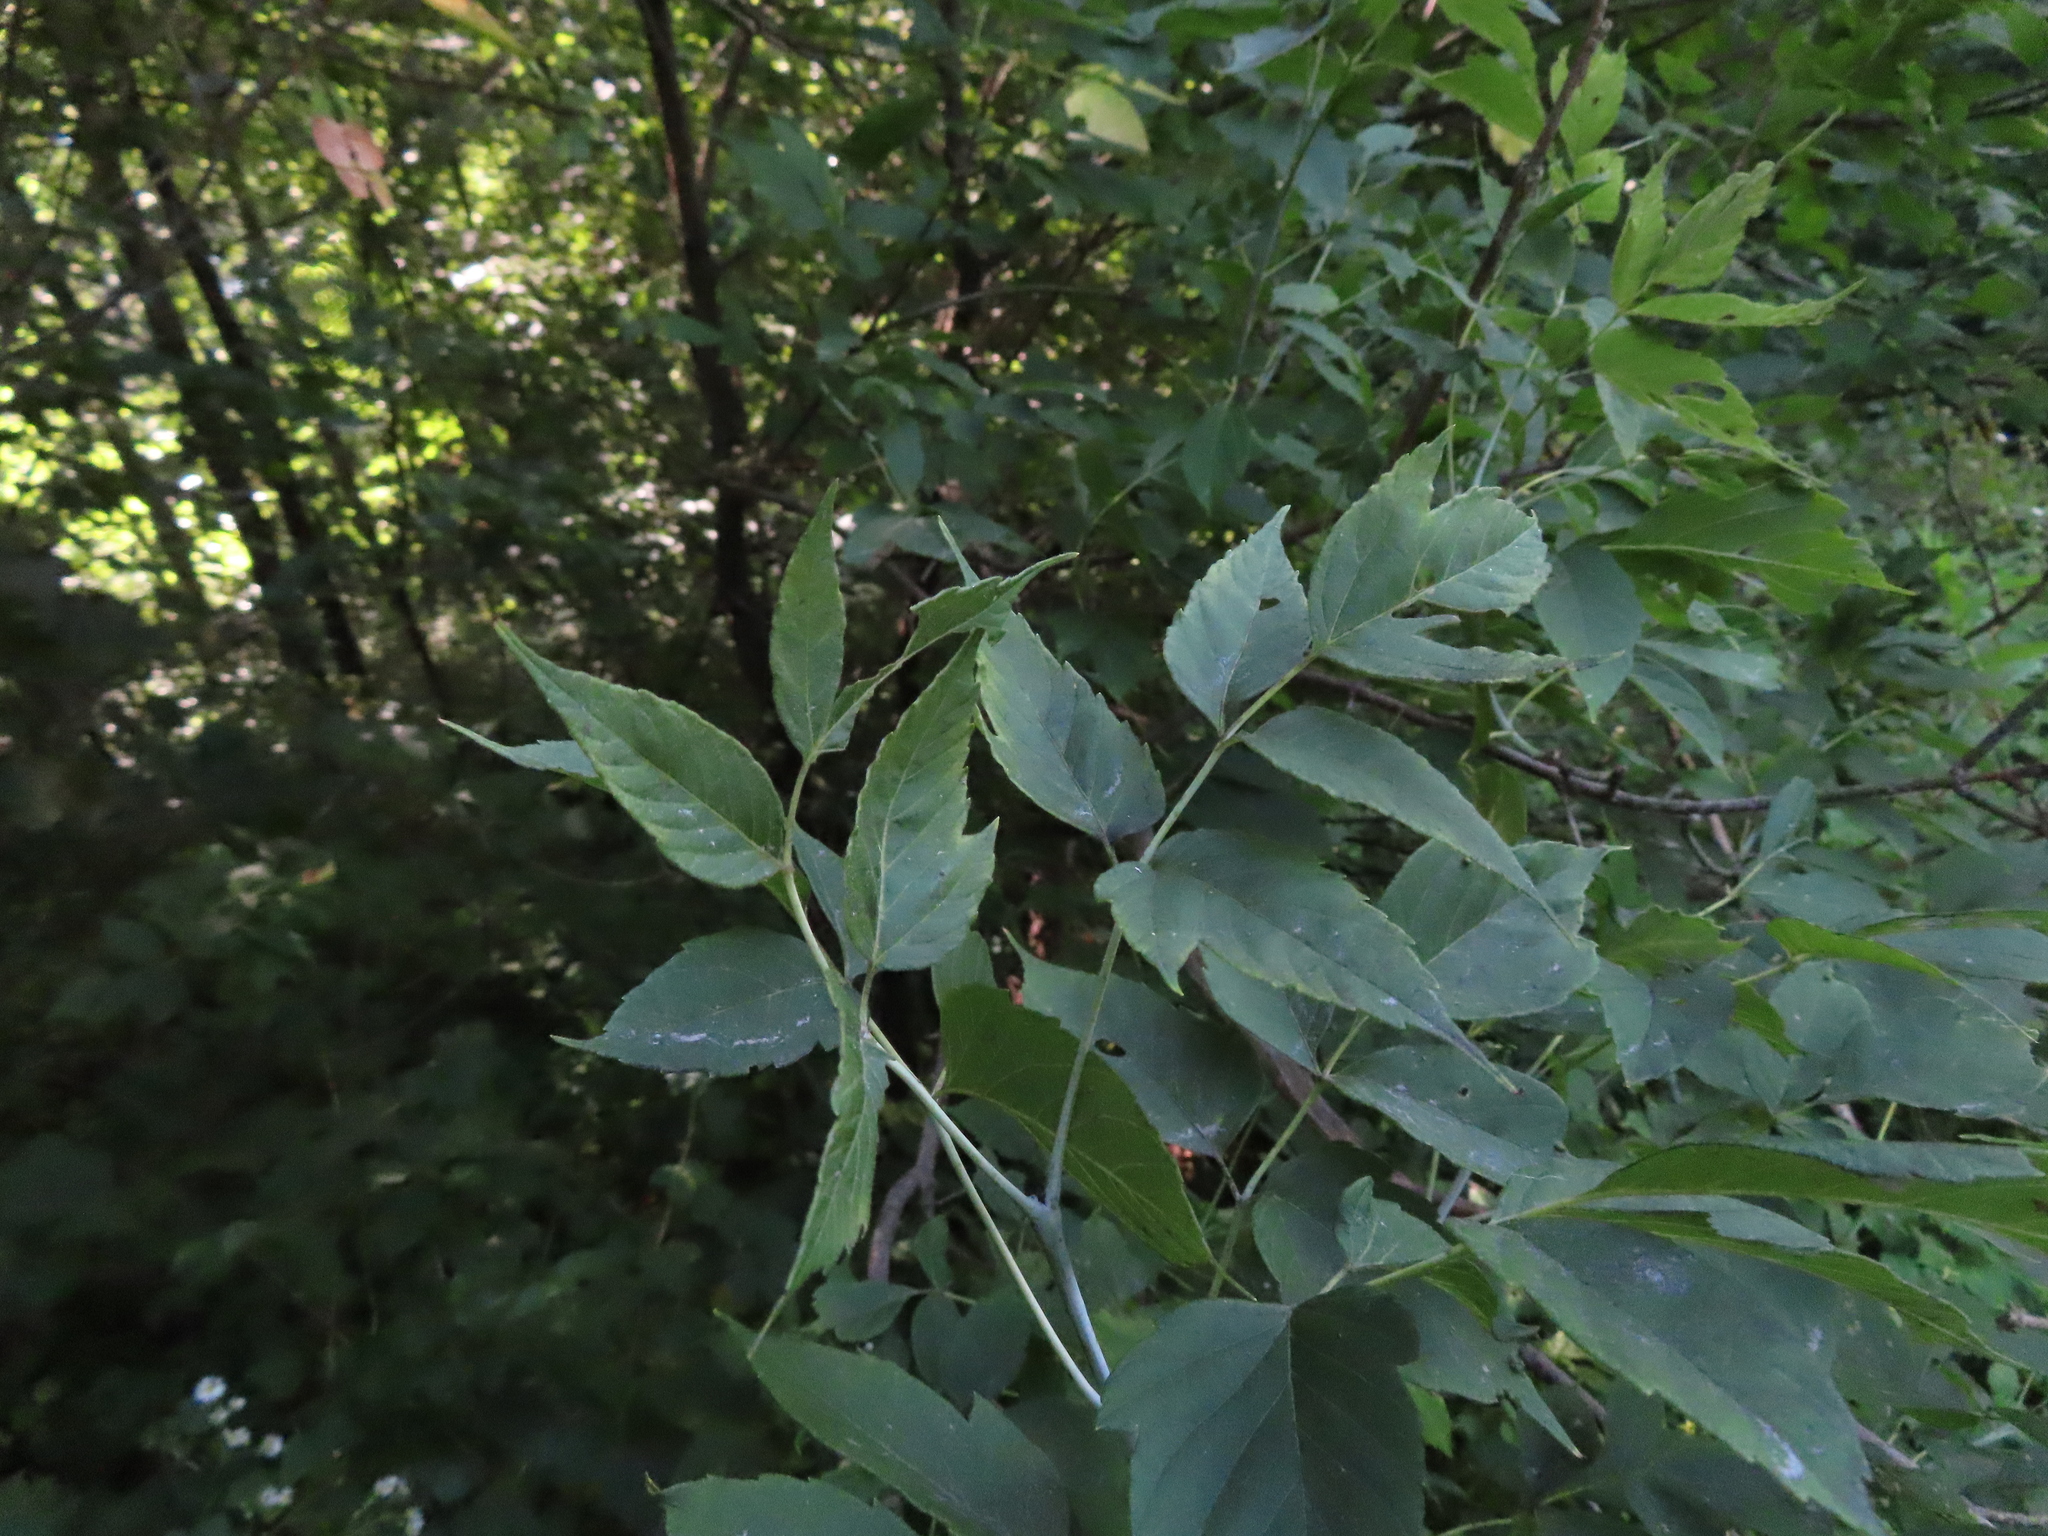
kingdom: Animalia
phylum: Arthropoda
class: Arachnida
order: Trombidiformes
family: Eriophyidae
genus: Aceria
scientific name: Aceria
